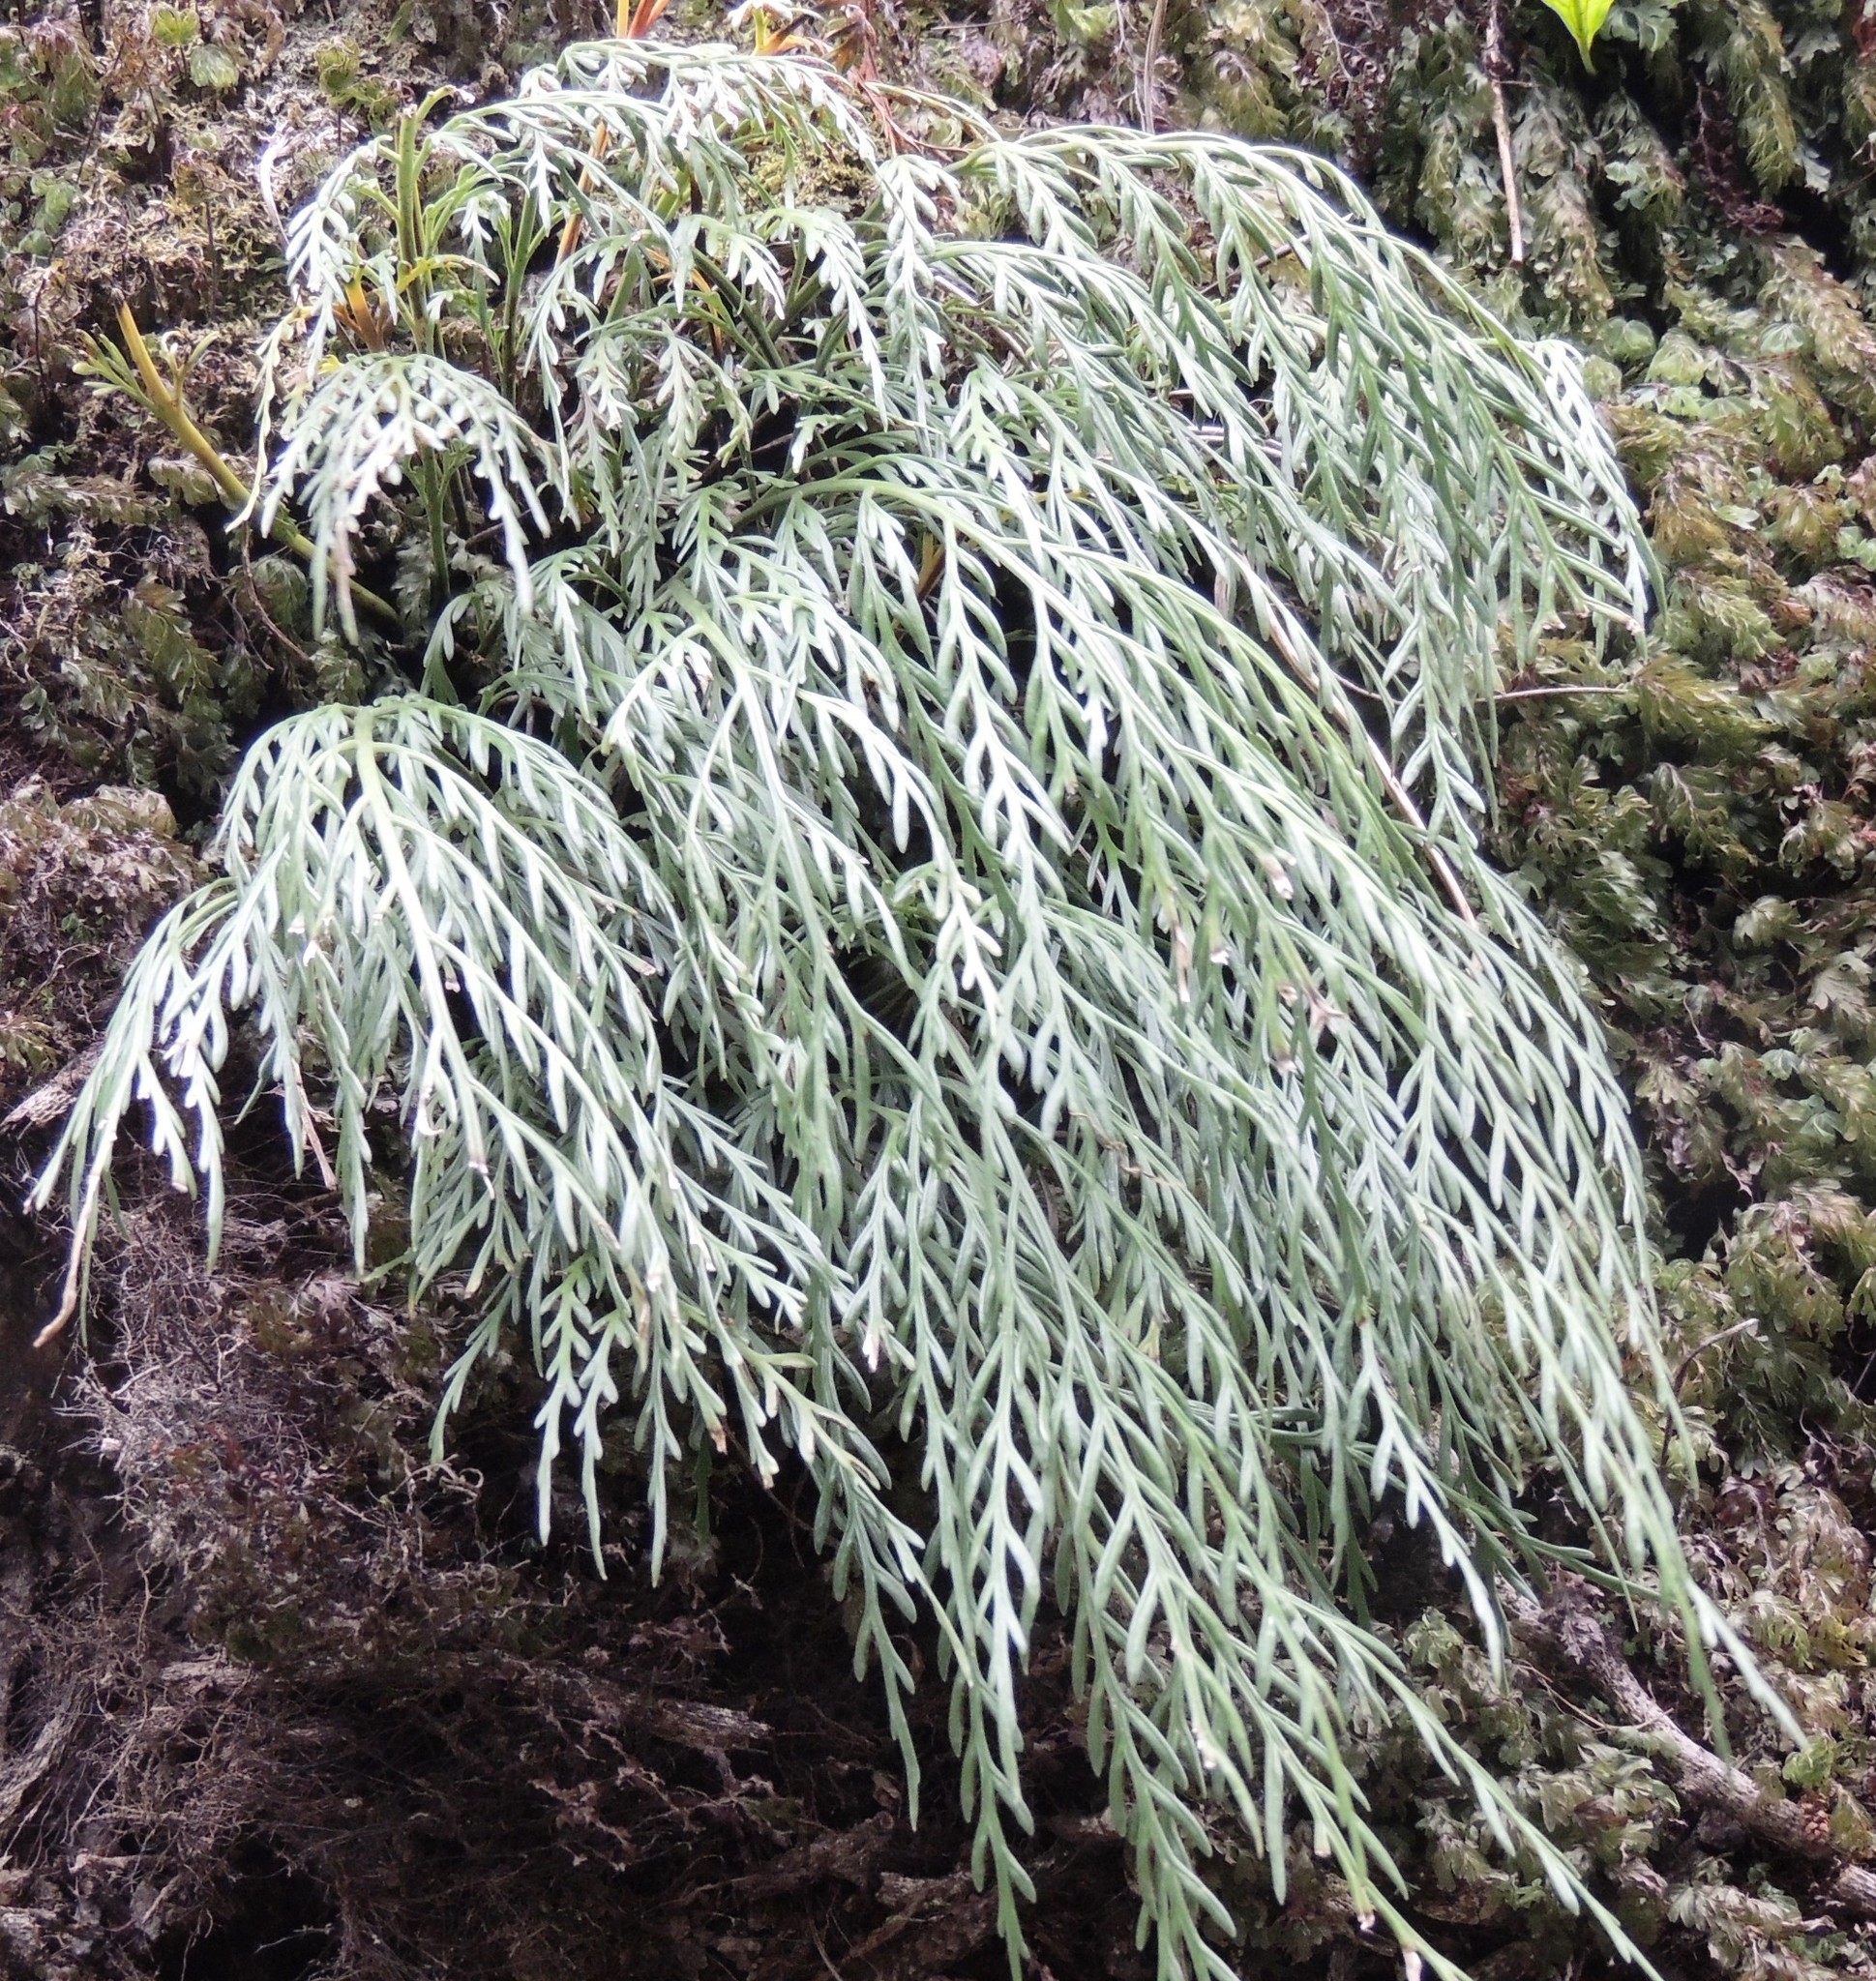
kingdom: Plantae
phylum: Tracheophyta
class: Polypodiopsida
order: Polypodiales
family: Aspleniaceae
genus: Asplenium
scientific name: Asplenium flaccidum
